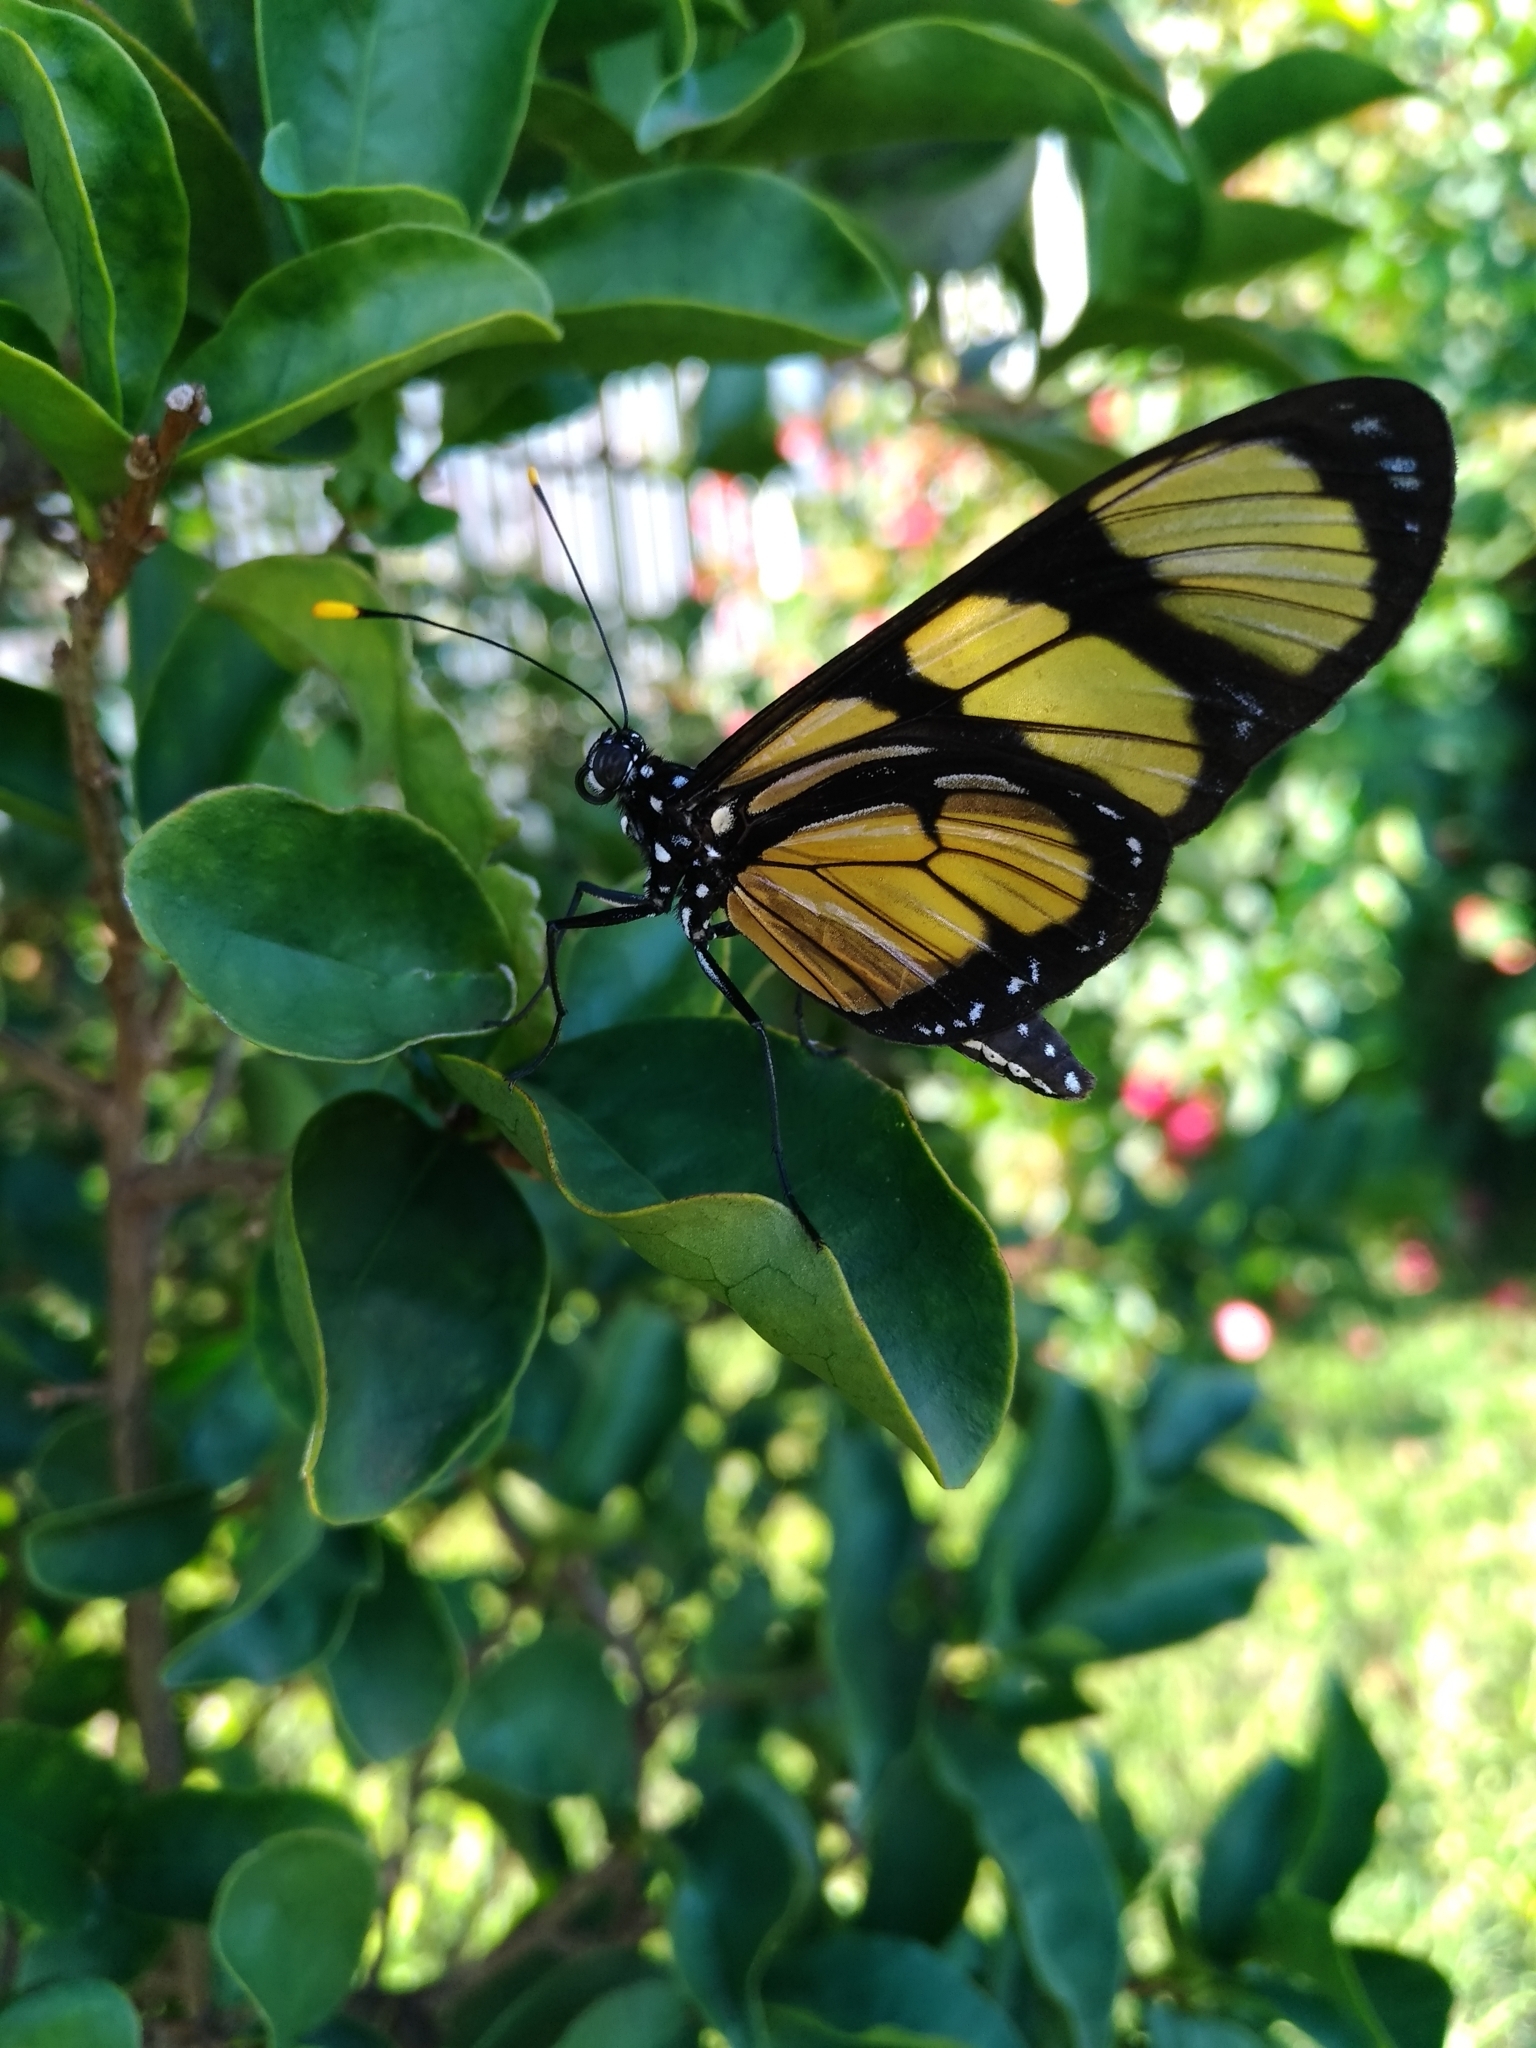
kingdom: Animalia
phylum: Arthropoda
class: Insecta
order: Lepidoptera
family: Nymphalidae
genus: Methona
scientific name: Methona themisto
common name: Themisto amberwing
